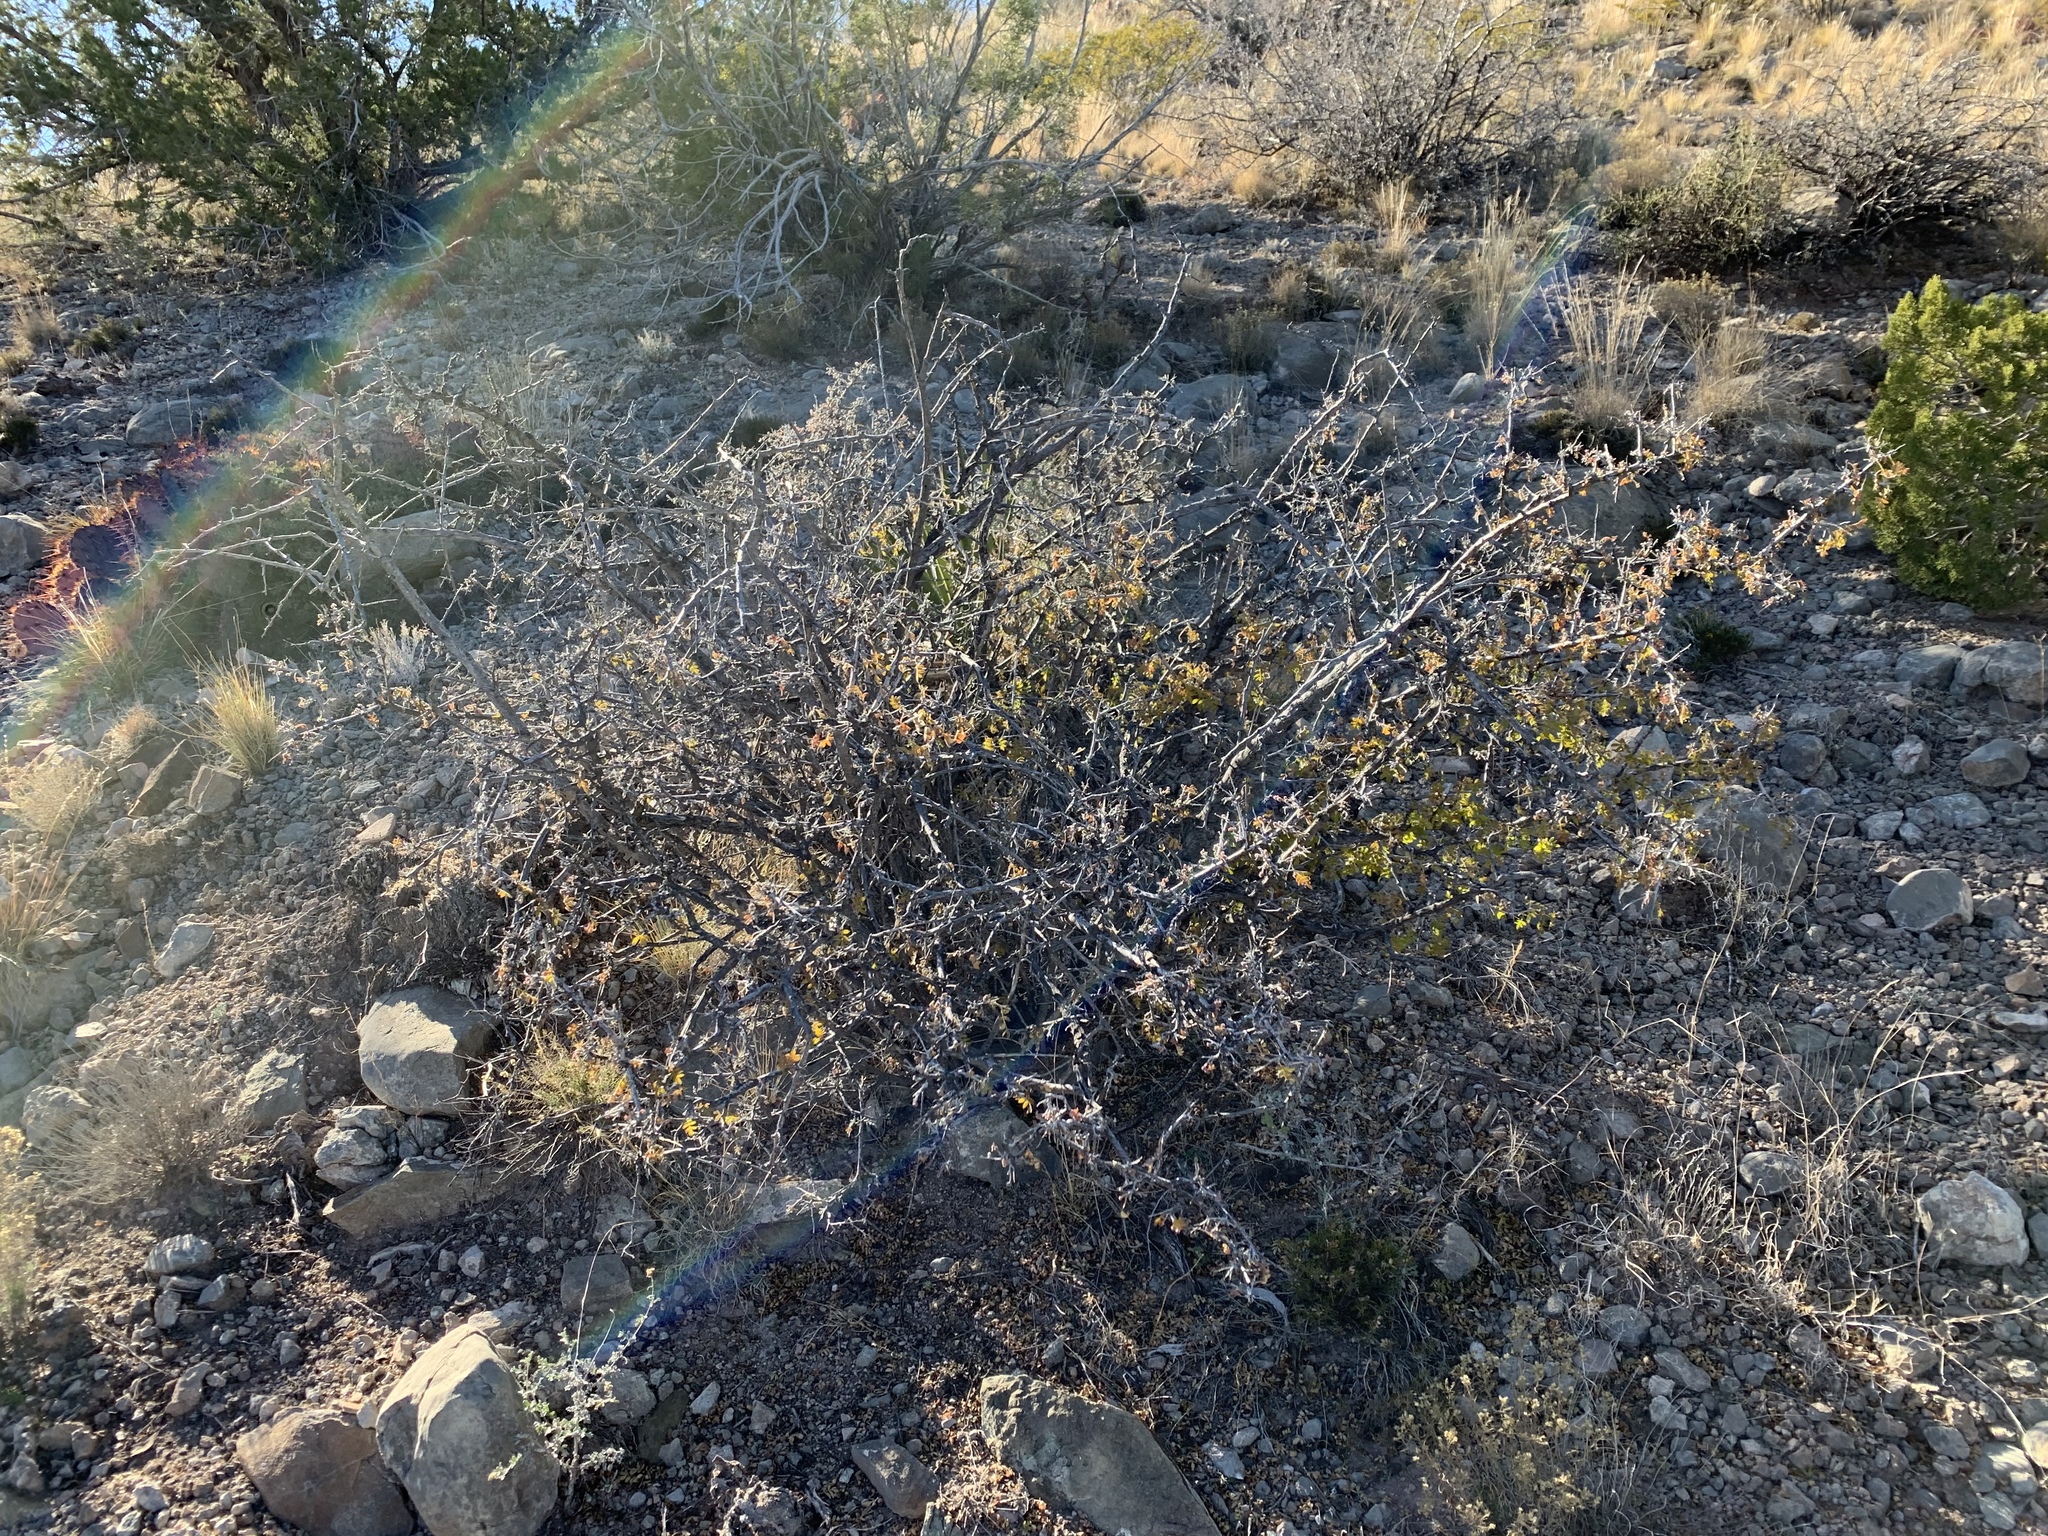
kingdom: Plantae
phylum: Tracheophyta
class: Magnoliopsida
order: Sapindales
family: Anacardiaceae
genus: Rhus
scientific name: Rhus microphylla
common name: Desert sumac
